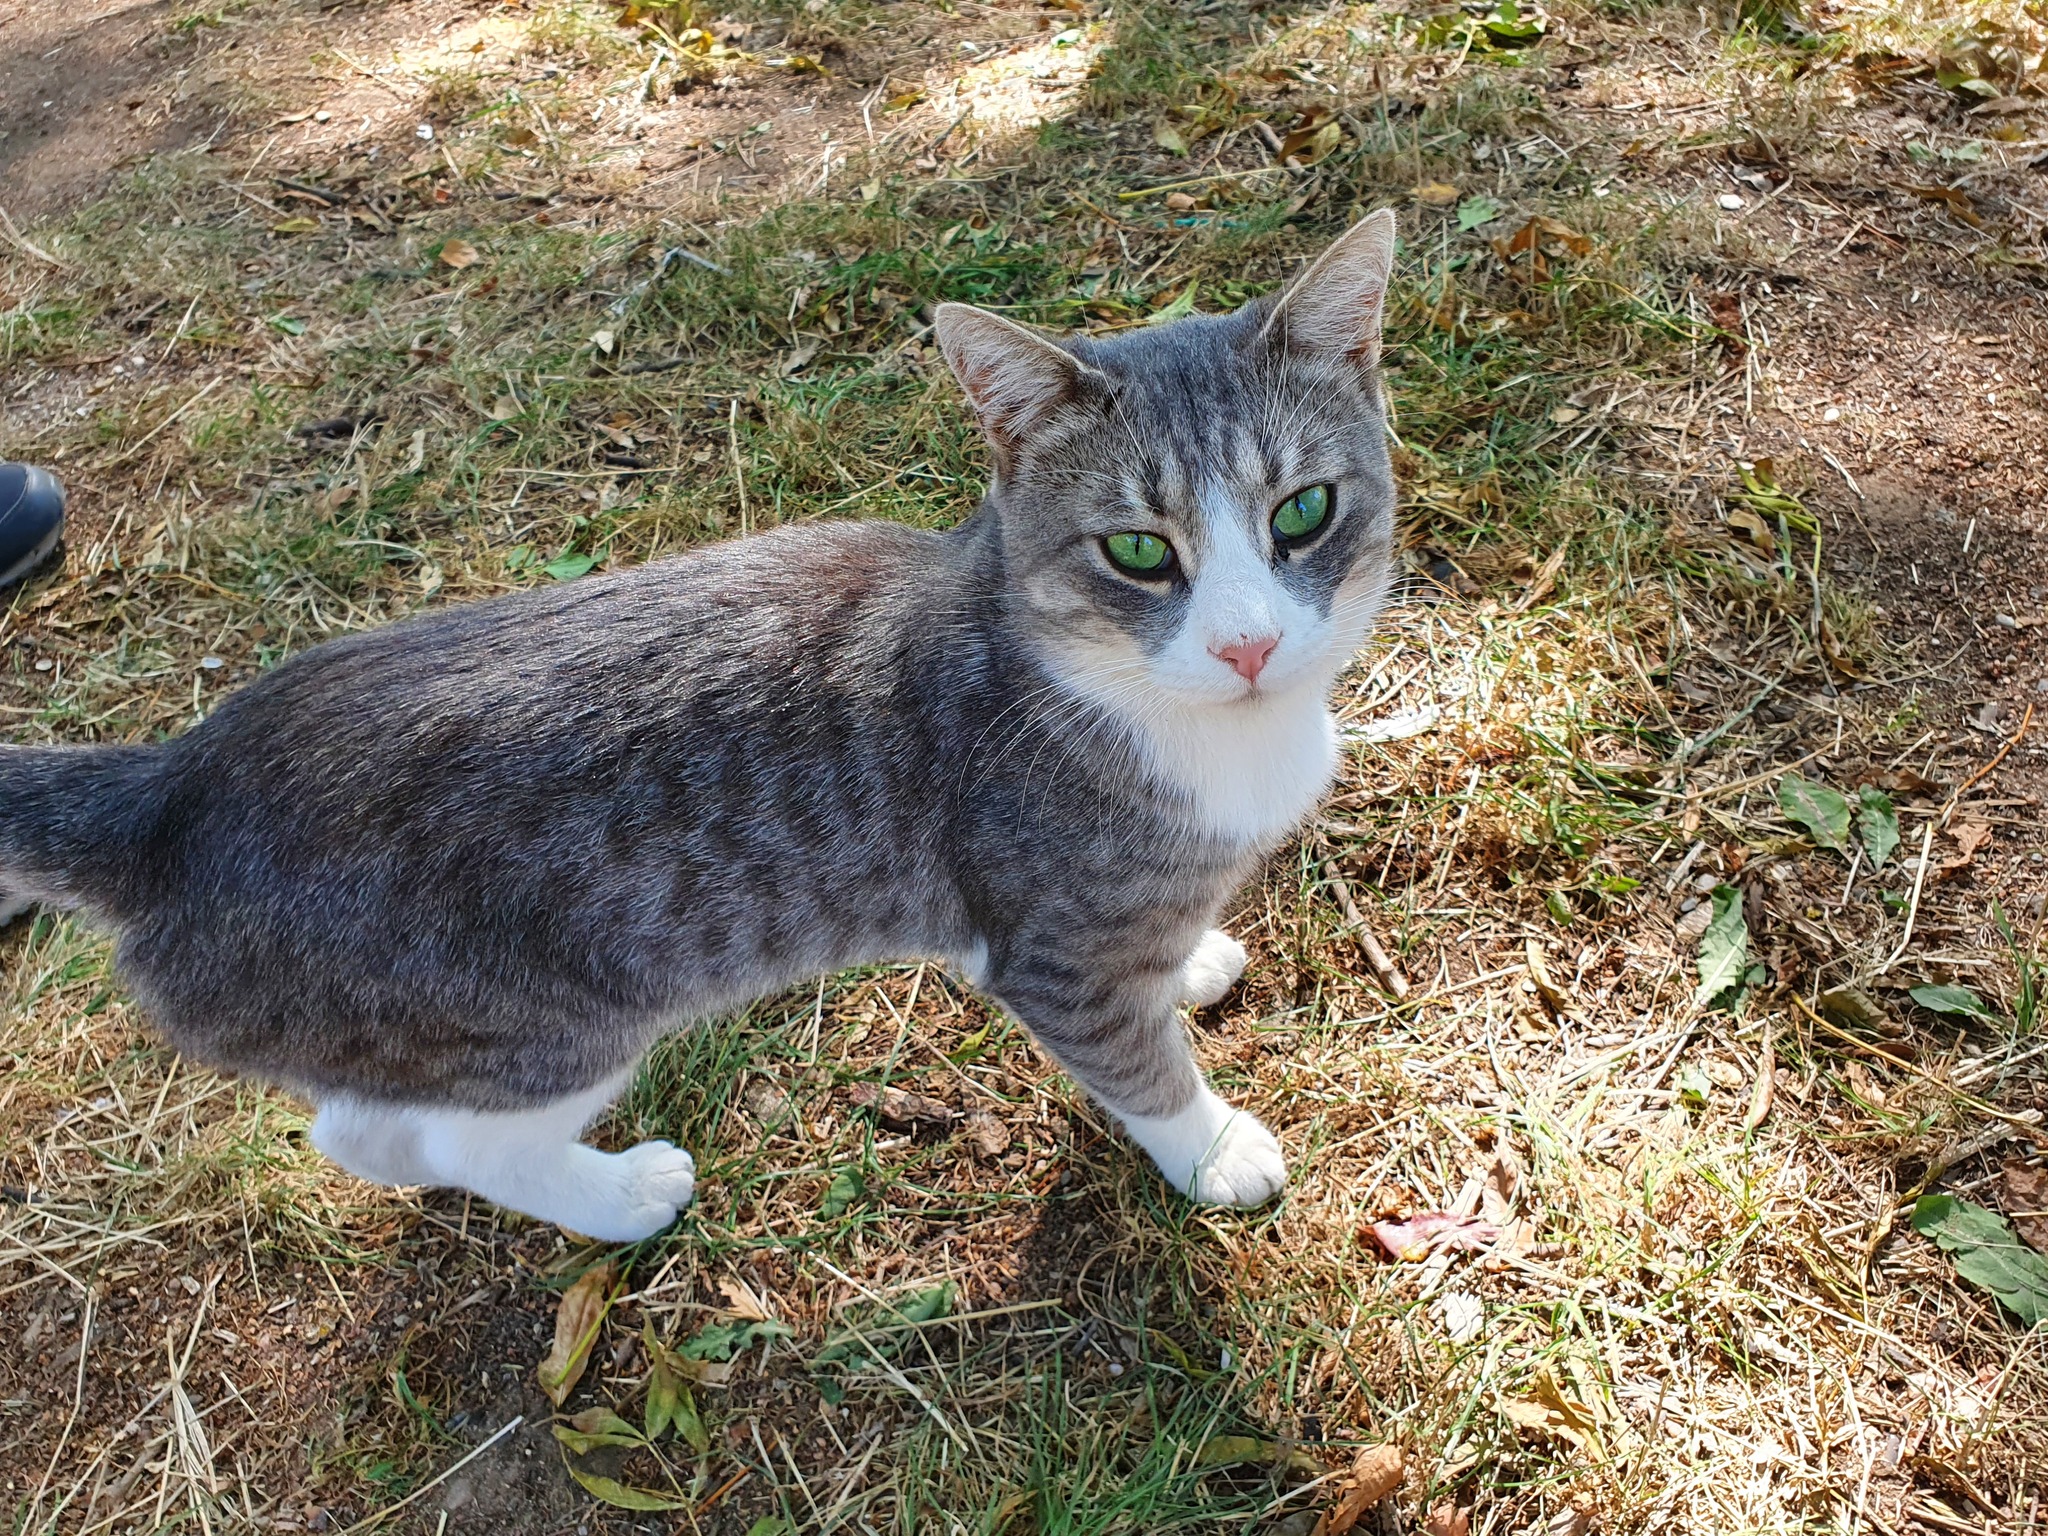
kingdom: Animalia
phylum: Chordata
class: Mammalia
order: Carnivora
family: Felidae
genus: Felis
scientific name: Felis catus
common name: Domestic cat
